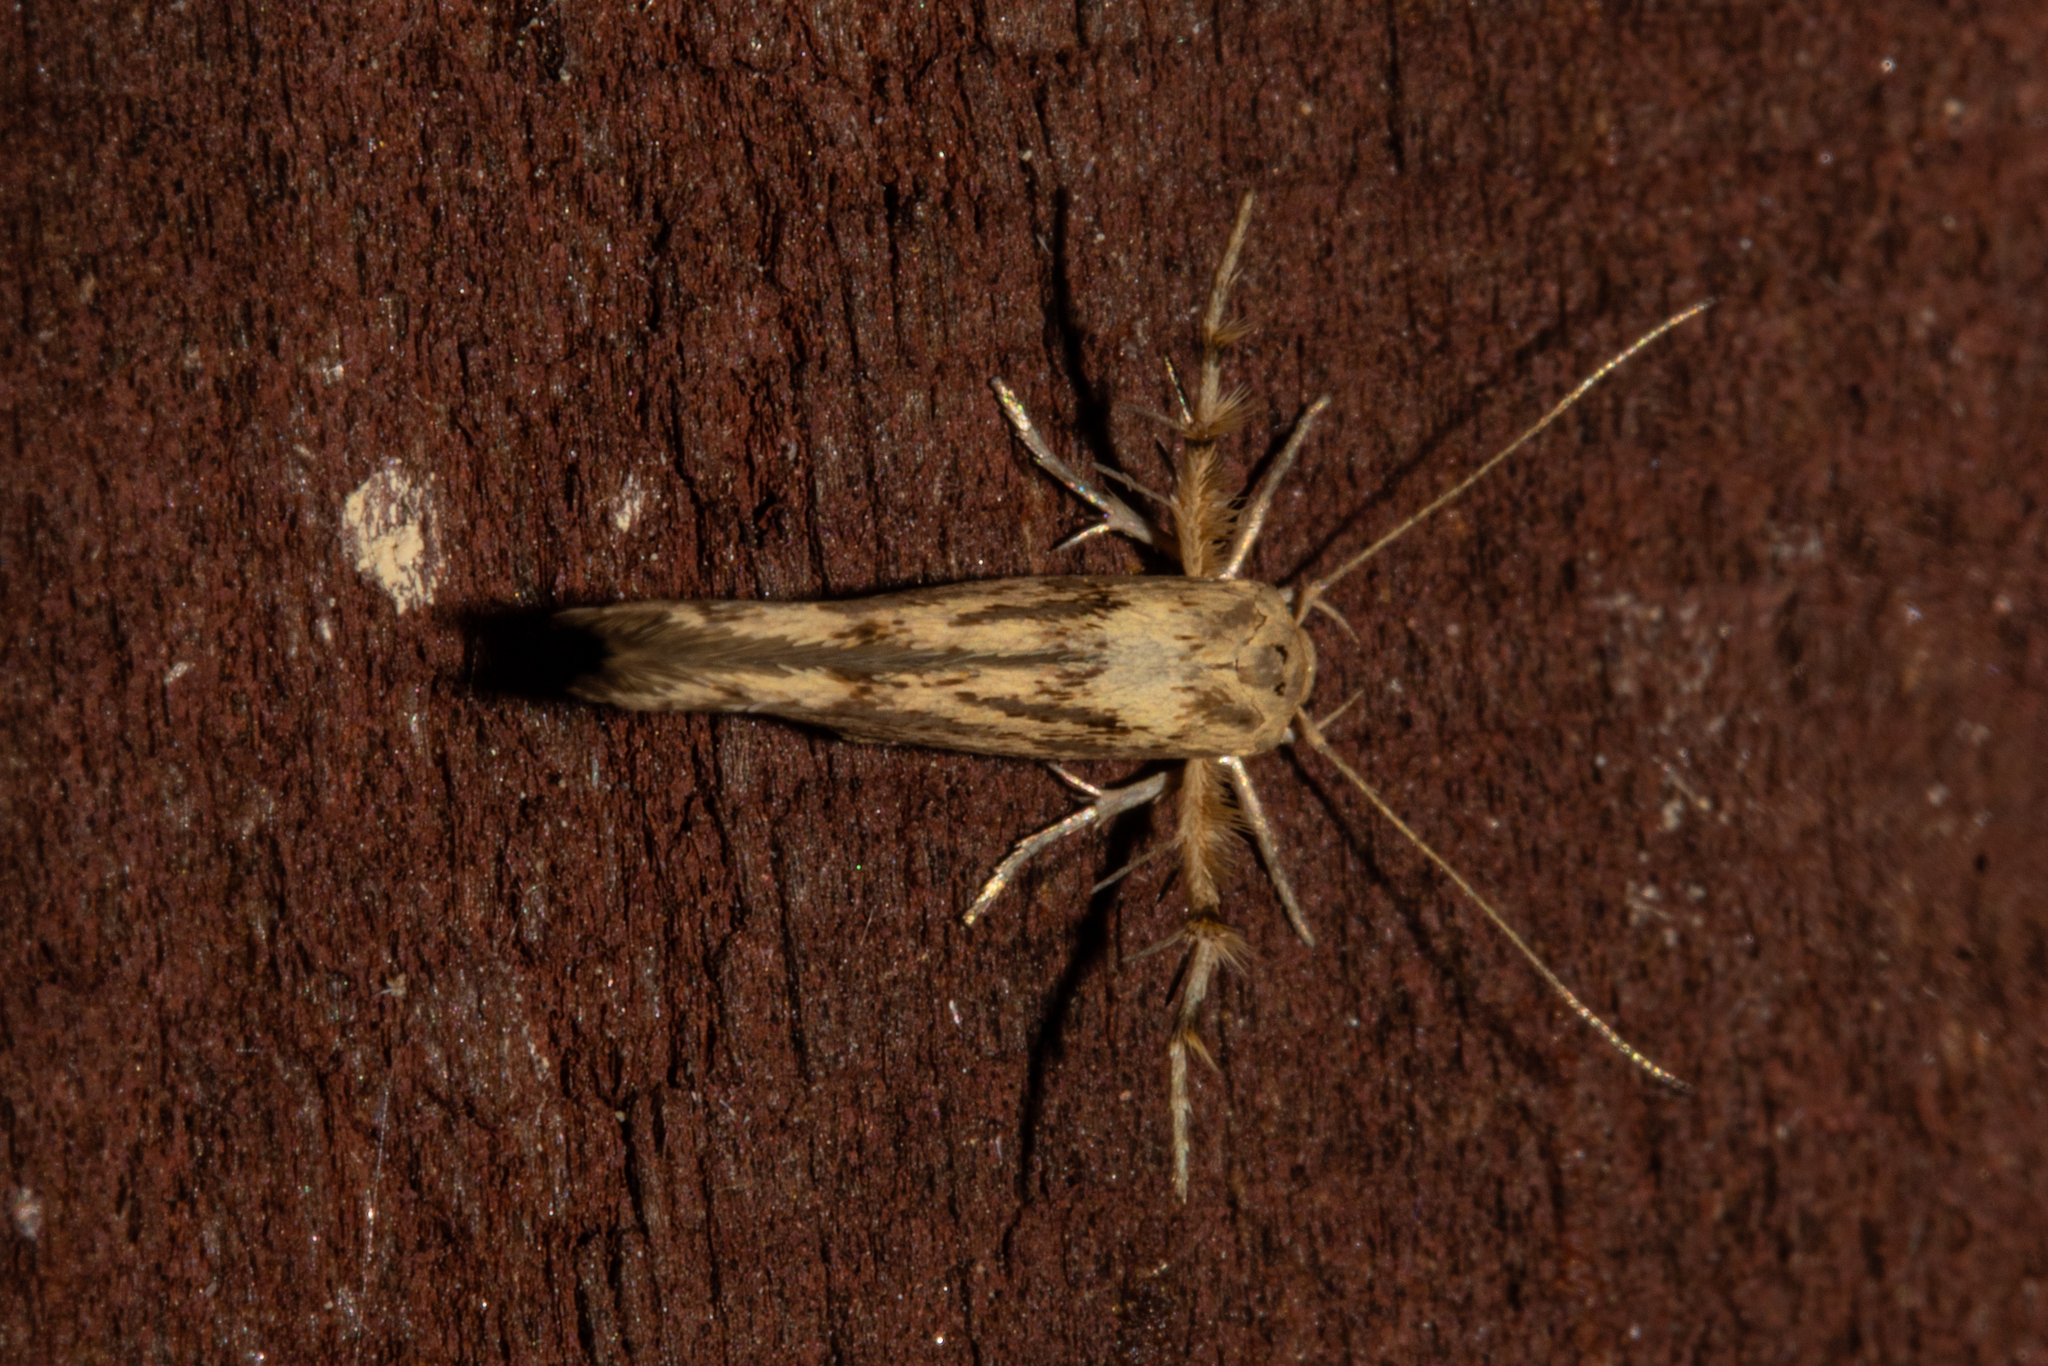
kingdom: Animalia
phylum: Arthropoda
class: Insecta
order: Lepidoptera
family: Stathmopodidae
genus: Stathmopoda
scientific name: Stathmopoda plumbiflua
